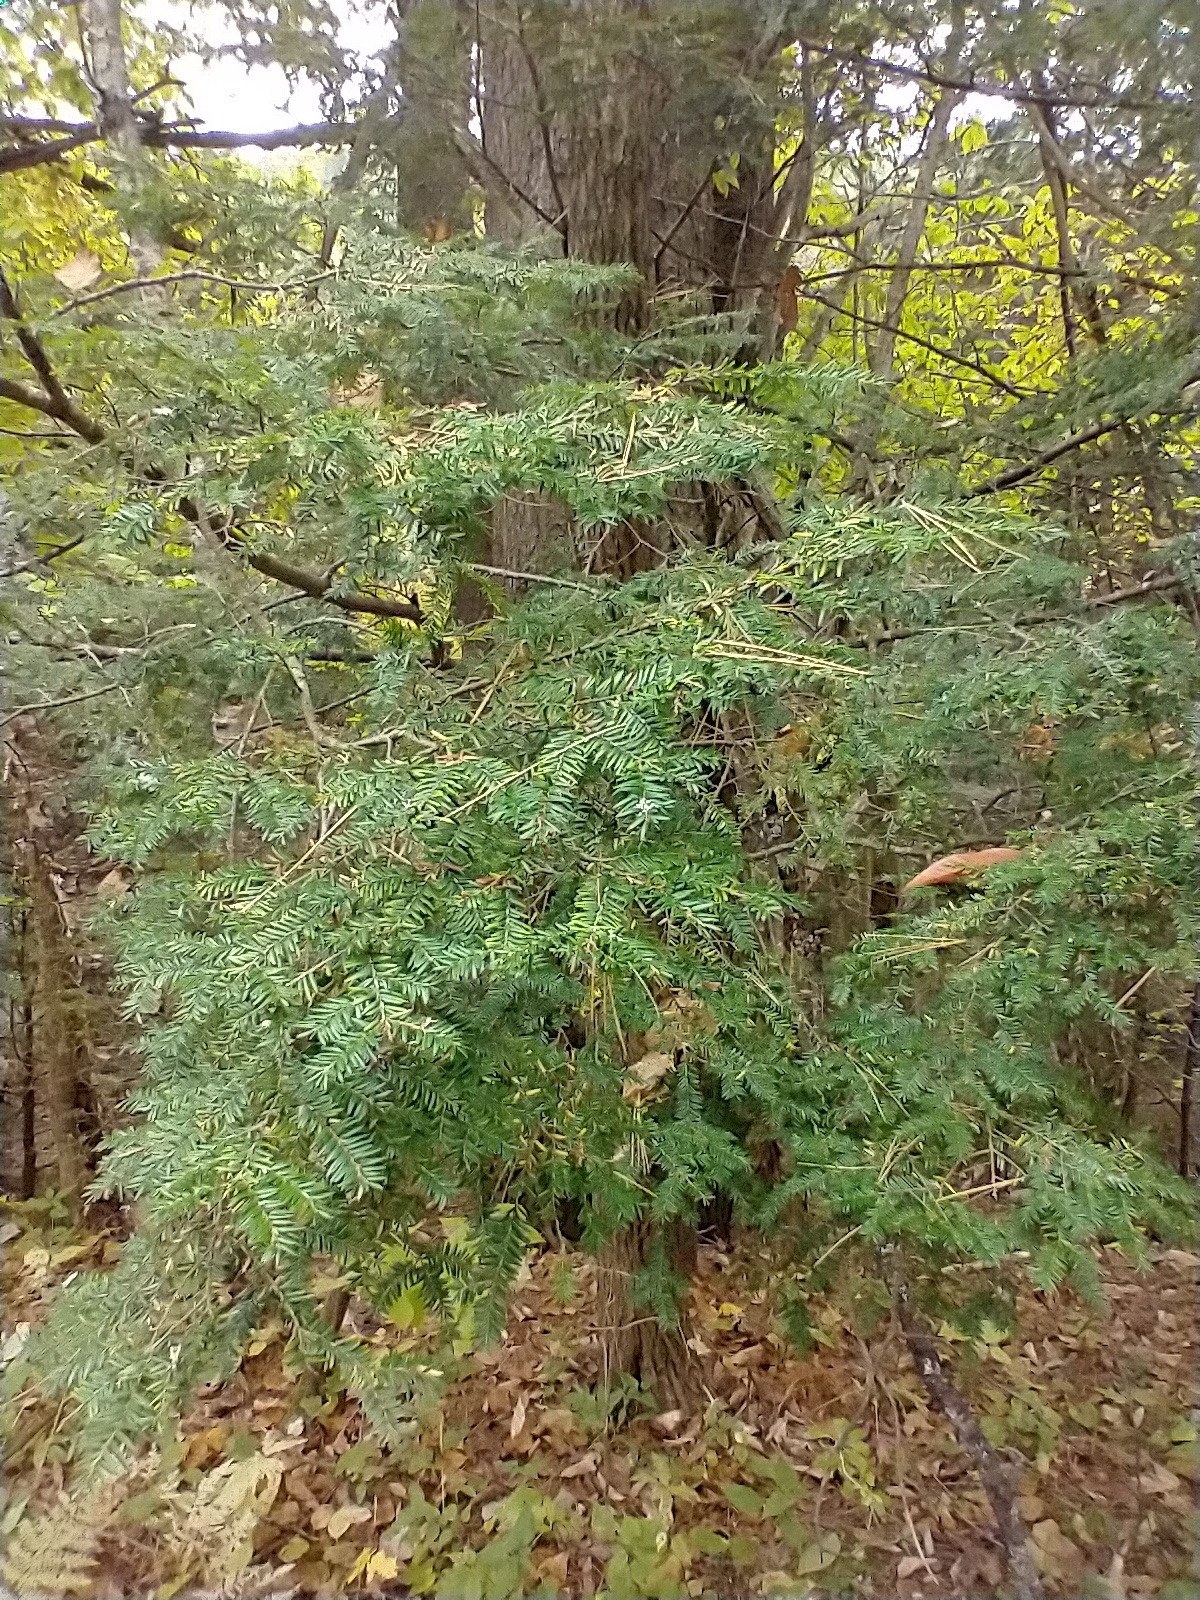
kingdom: Plantae
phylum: Tracheophyta
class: Pinopsida
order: Pinales
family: Pinaceae
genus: Tsuga
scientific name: Tsuga canadensis
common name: Eastern hemlock
